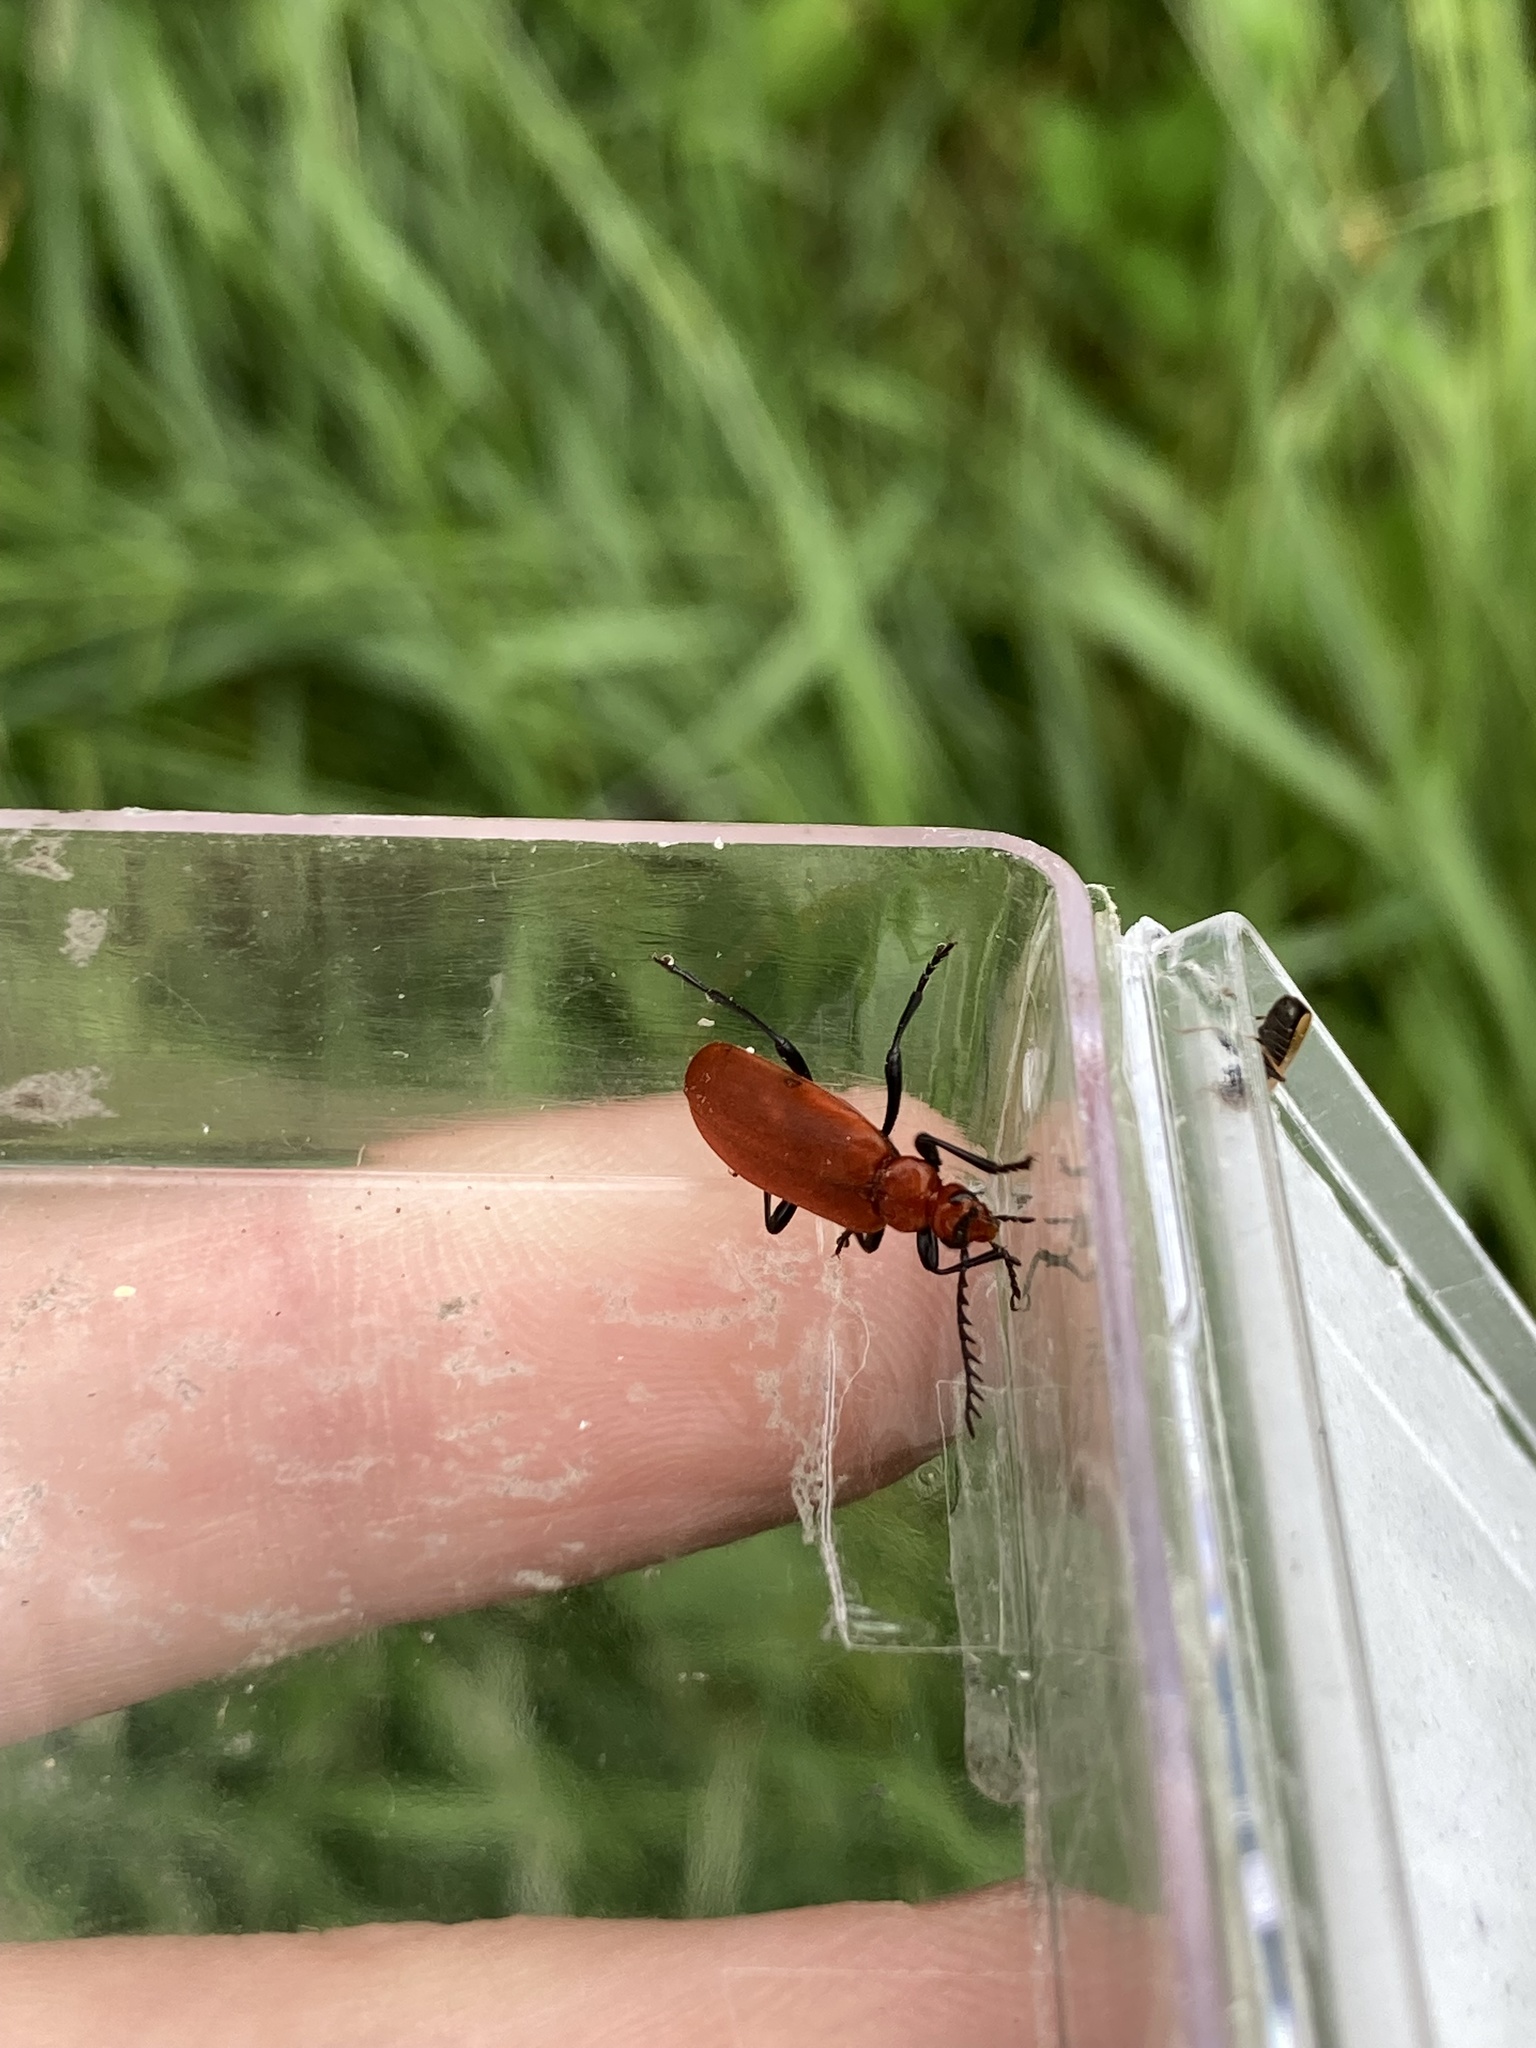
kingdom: Animalia
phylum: Arthropoda
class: Insecta
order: Coleoptera
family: Pyrochroidae
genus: Pyrochroa
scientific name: Pyrochroa serraticornis
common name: Red-headed cardinal beetle
